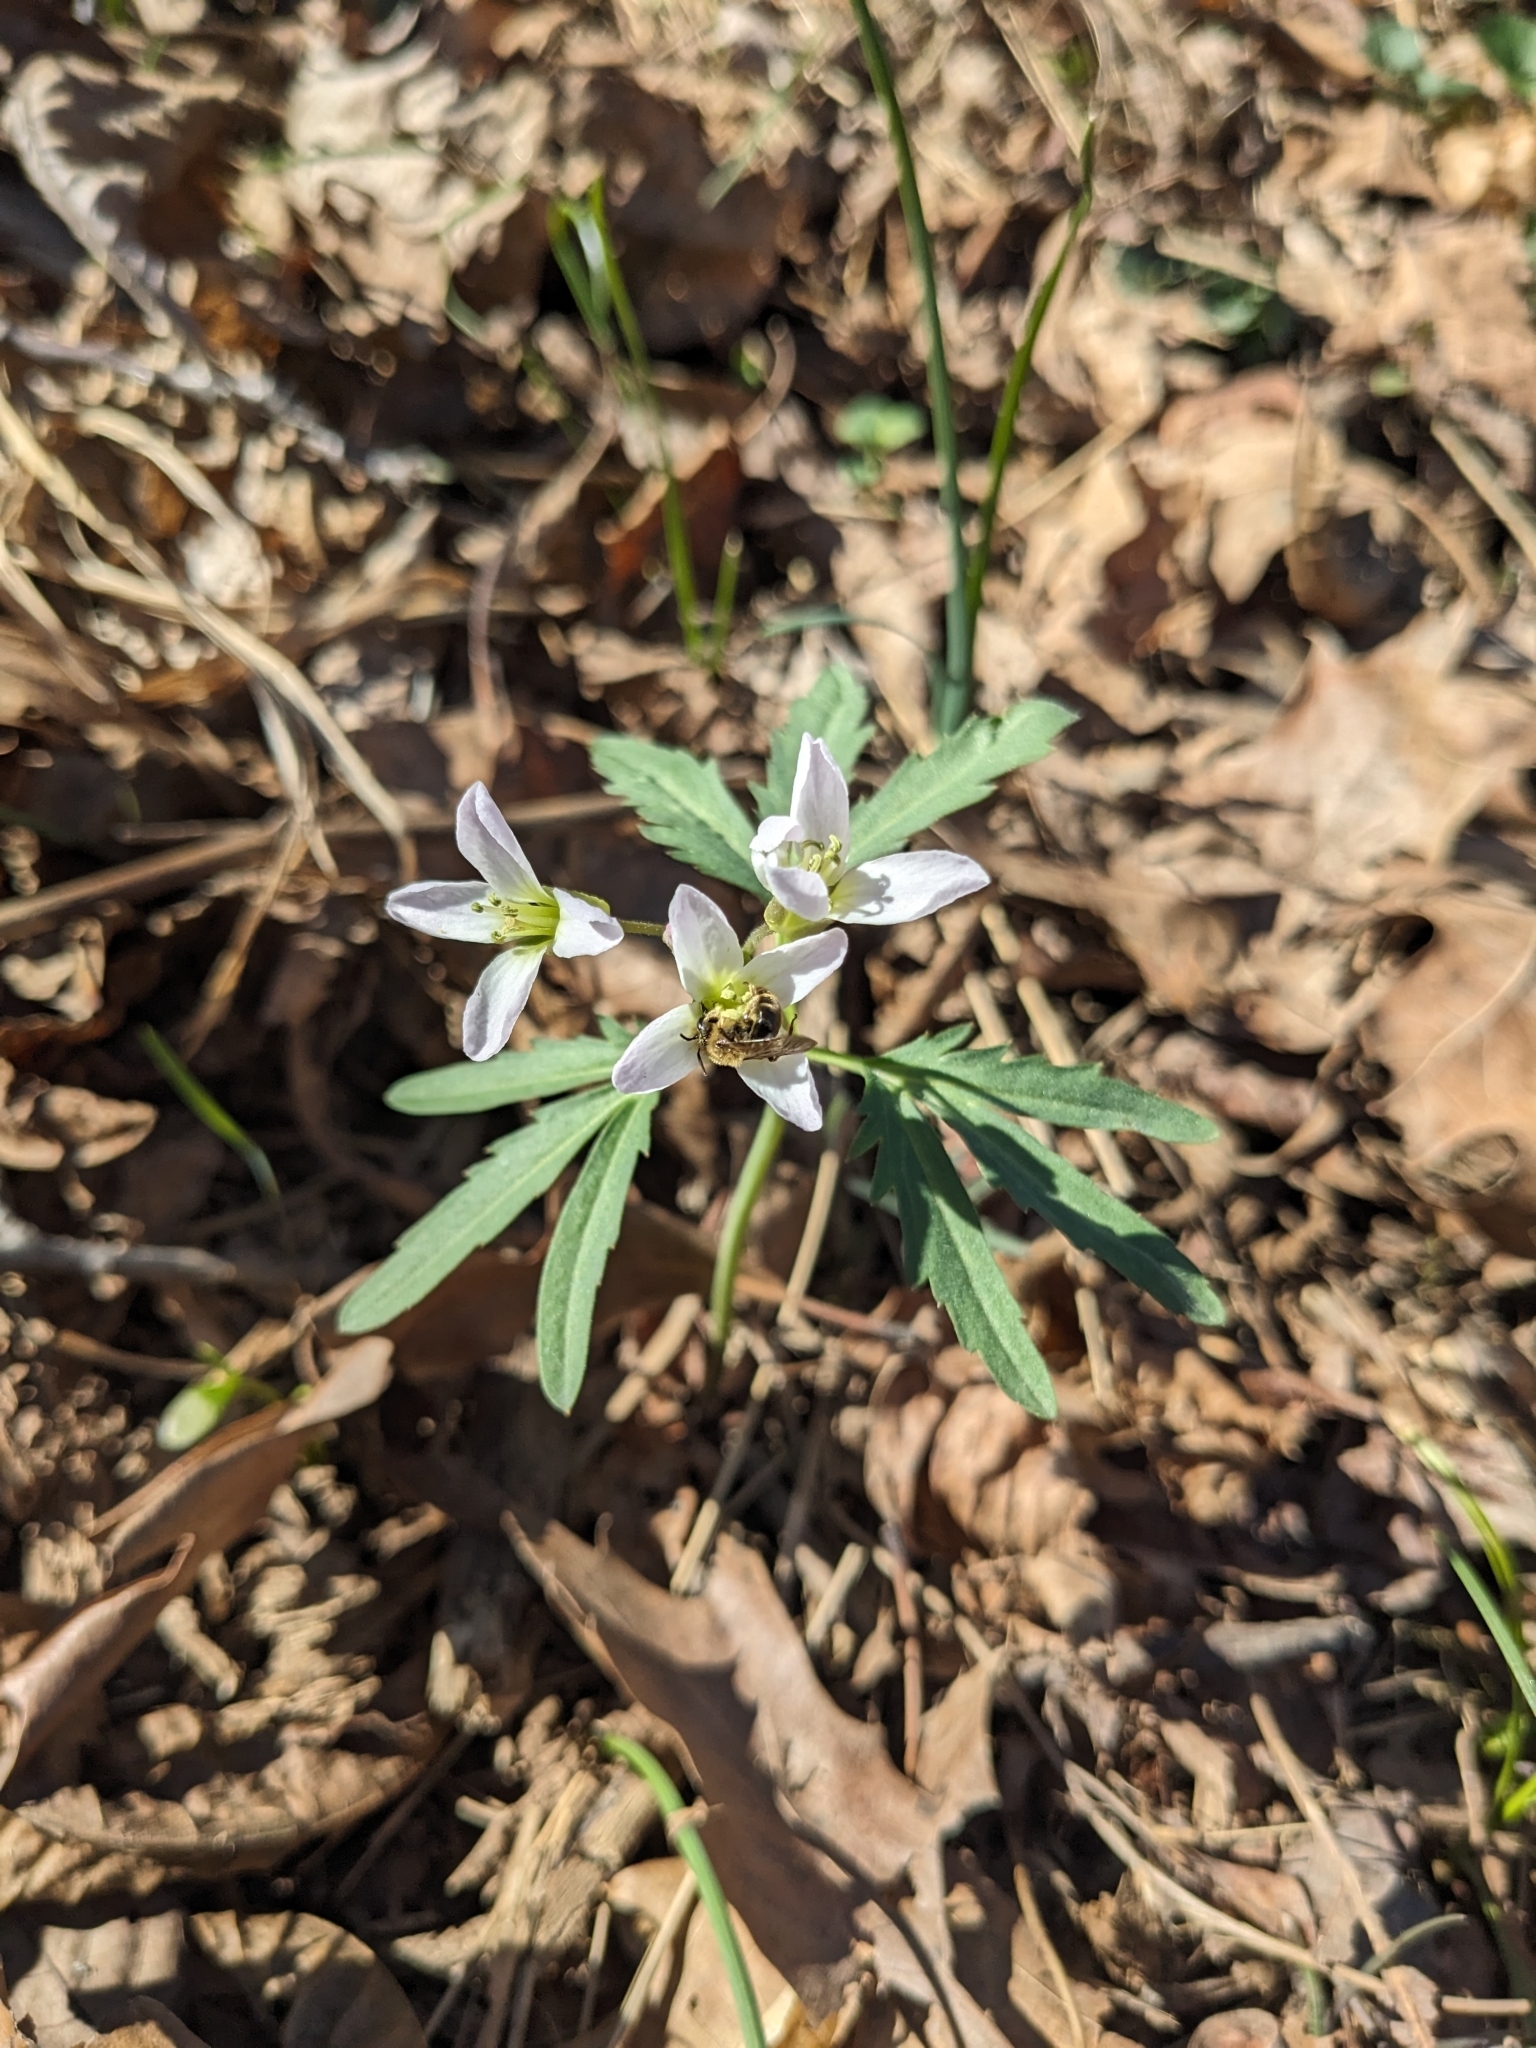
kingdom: Plantae
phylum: Tracheophyta
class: Magnoliopsida
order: Brassicales
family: Brassicaceae
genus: Cardamine
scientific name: Cardamine concatenata
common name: Cut-leaf toothcup
